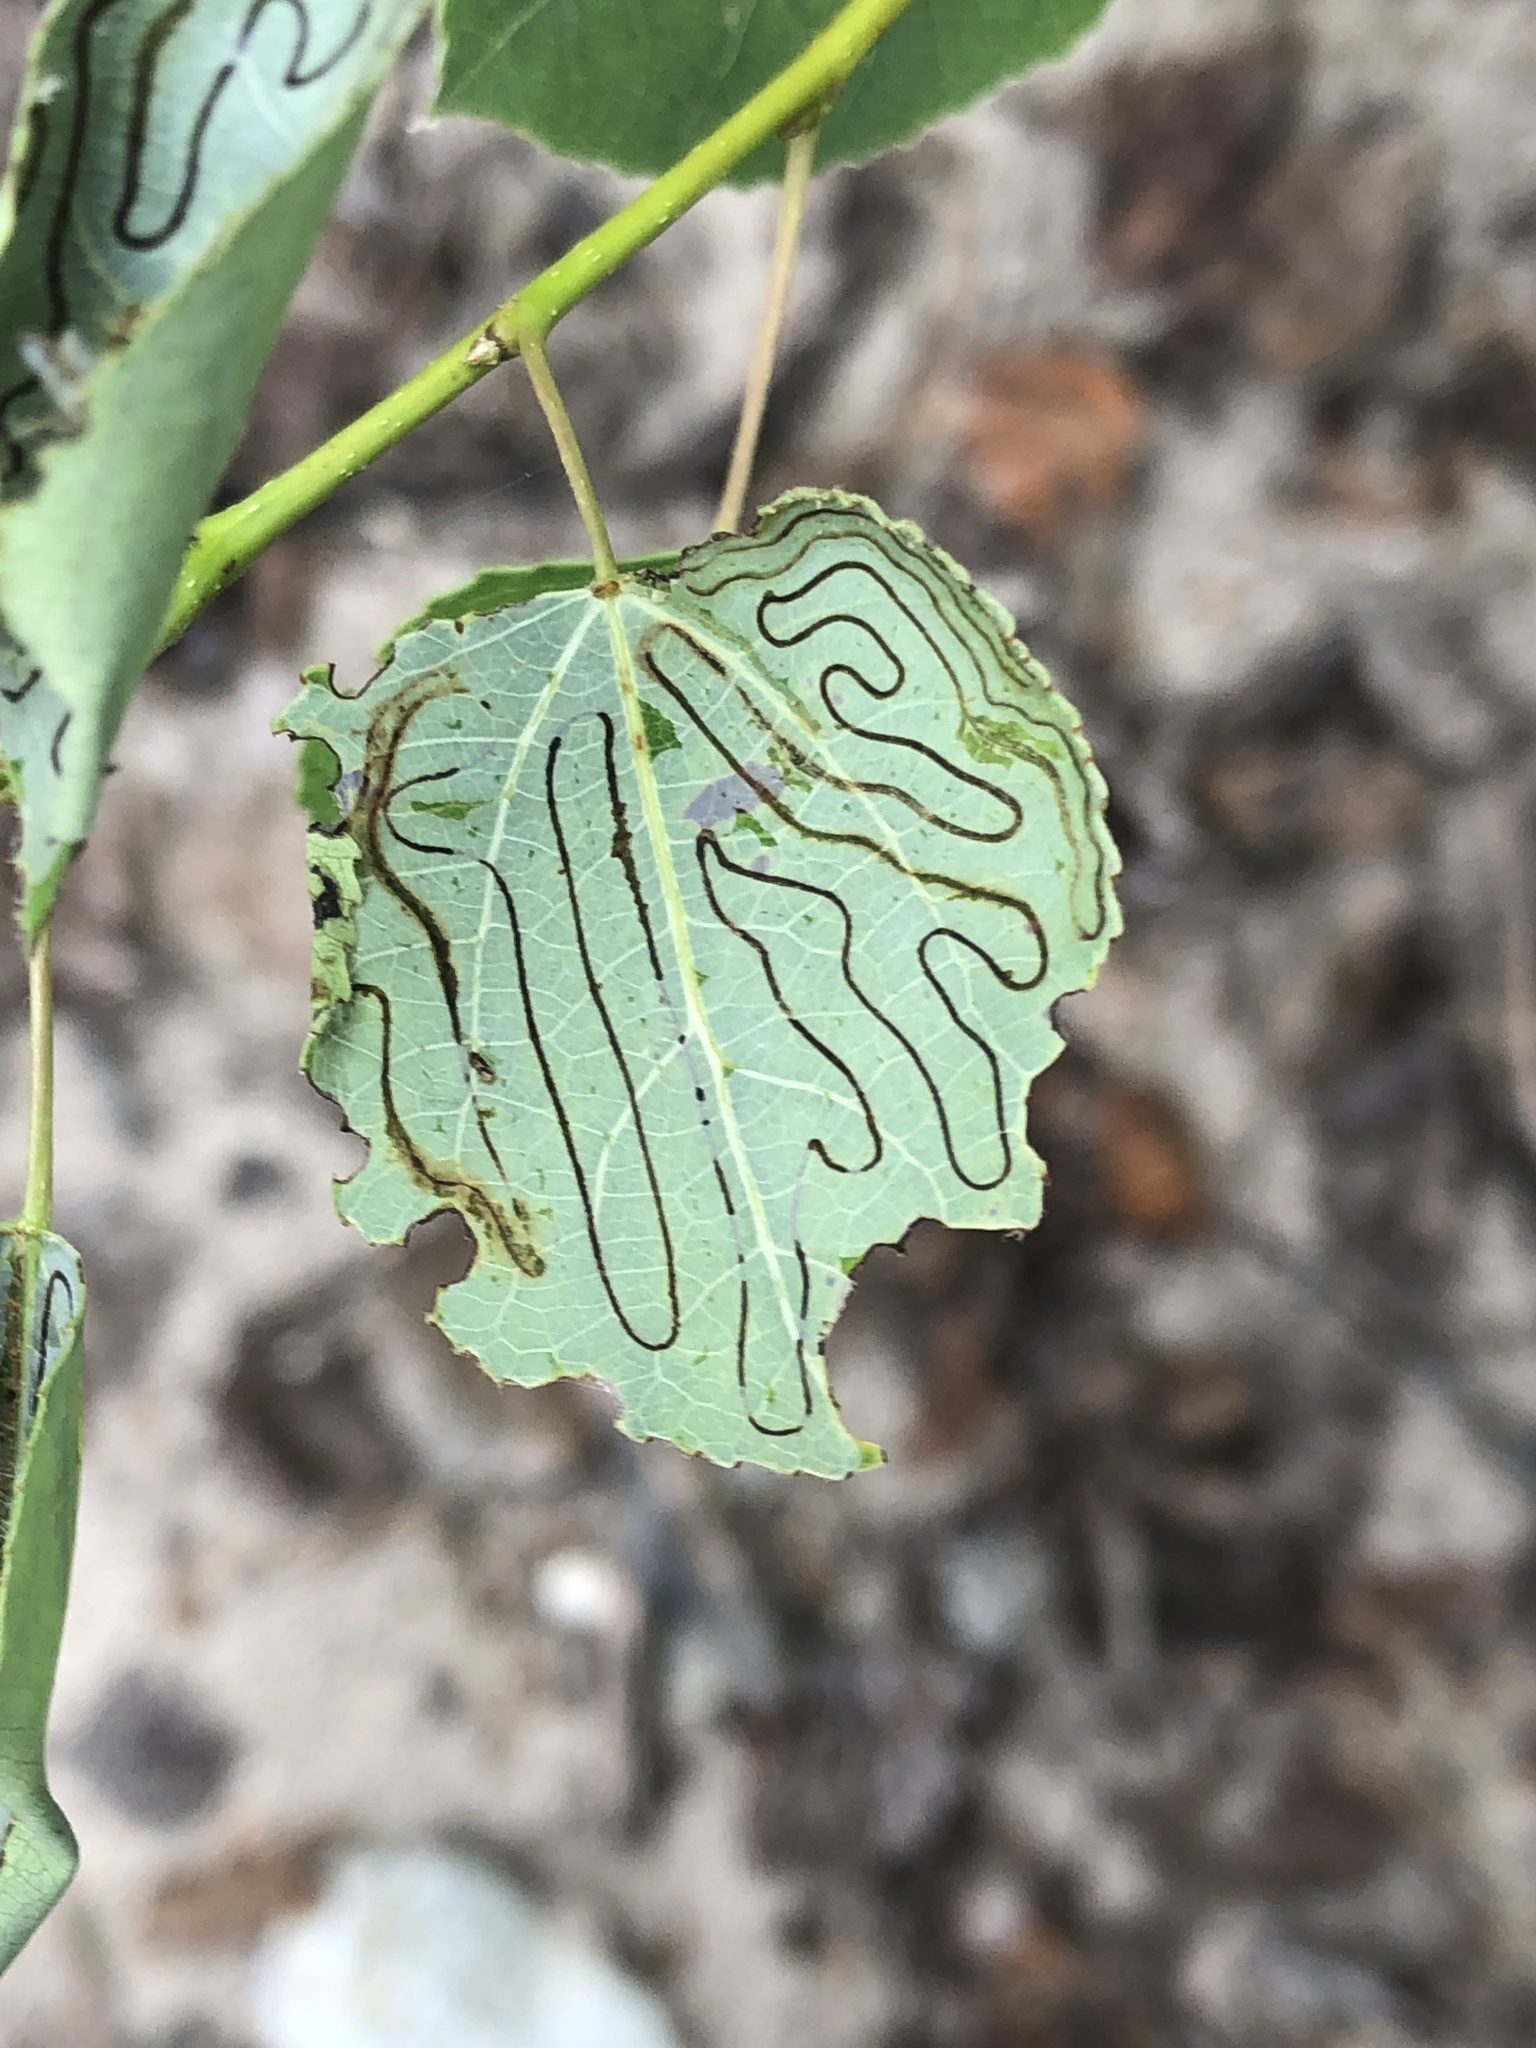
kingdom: Animalia
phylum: Arthropoda
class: Insecta
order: Lepidoptera
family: Gracillariidae
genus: Phyllocnistis
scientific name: Phyllocnistis populiella
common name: Aspen serpentine leafminer moth
